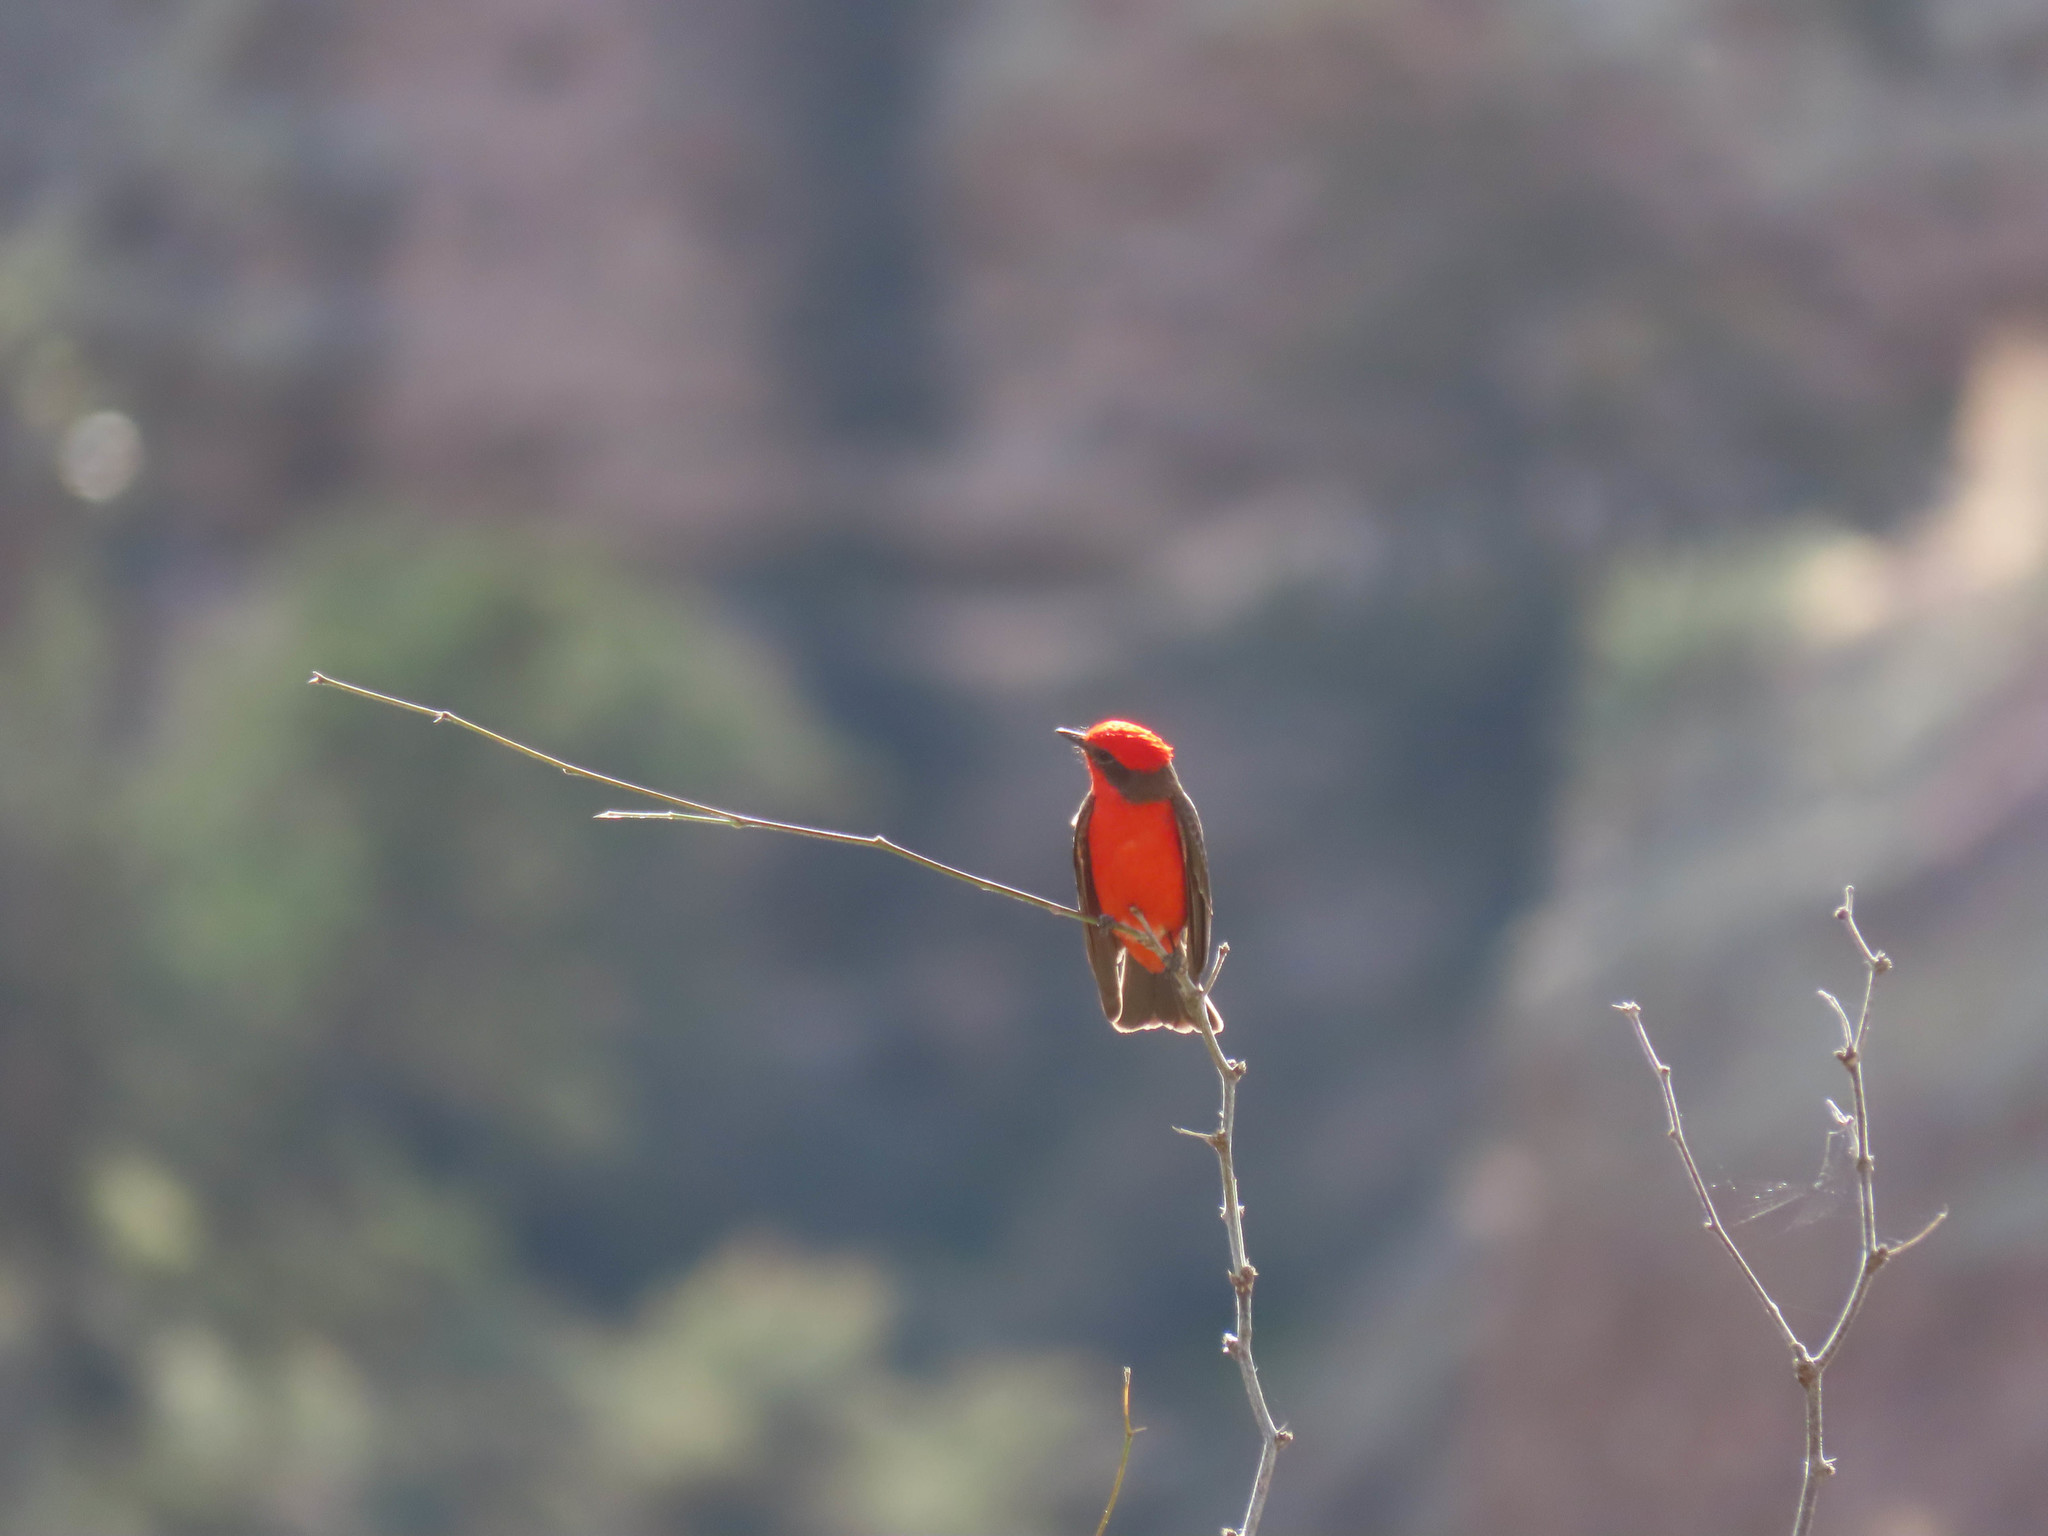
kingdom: Animalia
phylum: Chordata
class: Aves
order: Passeriformes
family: Tyrannidae
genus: Pyrocephalus
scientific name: Pyrocephalus rubinus
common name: Vermilion flycatcher
